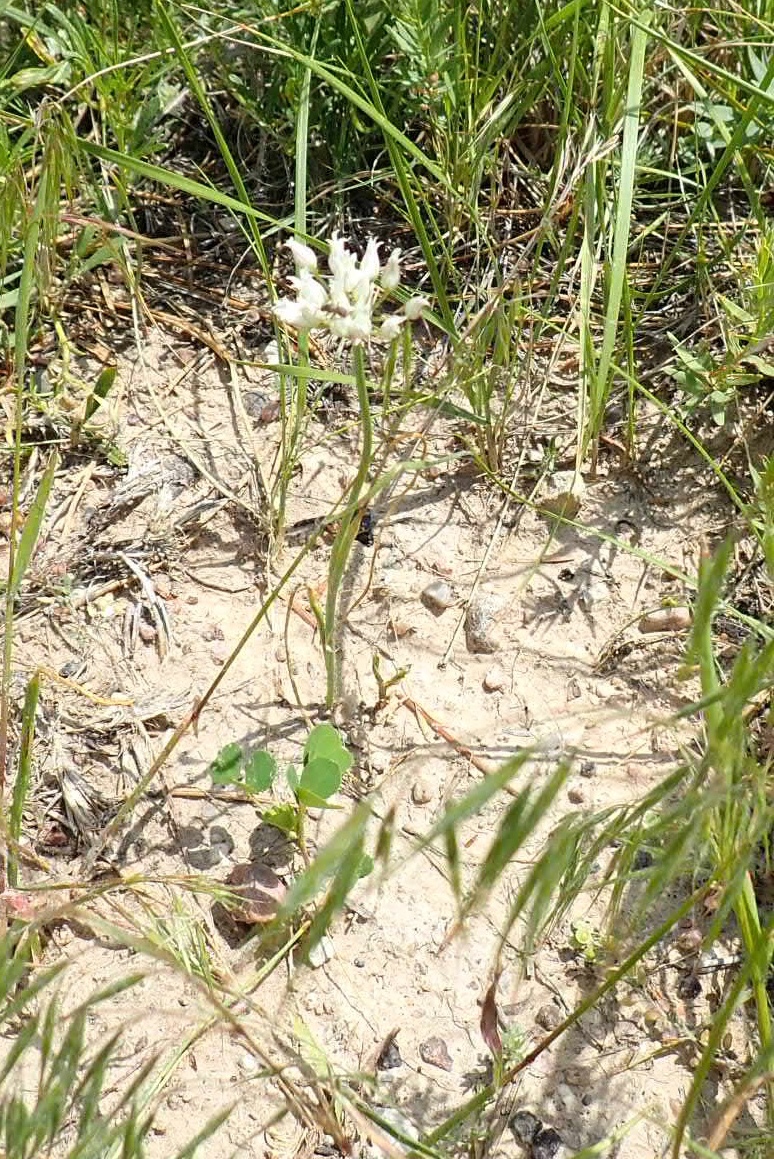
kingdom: Plantae
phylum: Tracheophyta
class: Liliopsida
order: Asparagales
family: Amaryllidaceae
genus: Allium
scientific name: Allium textile
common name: Prairie onion
